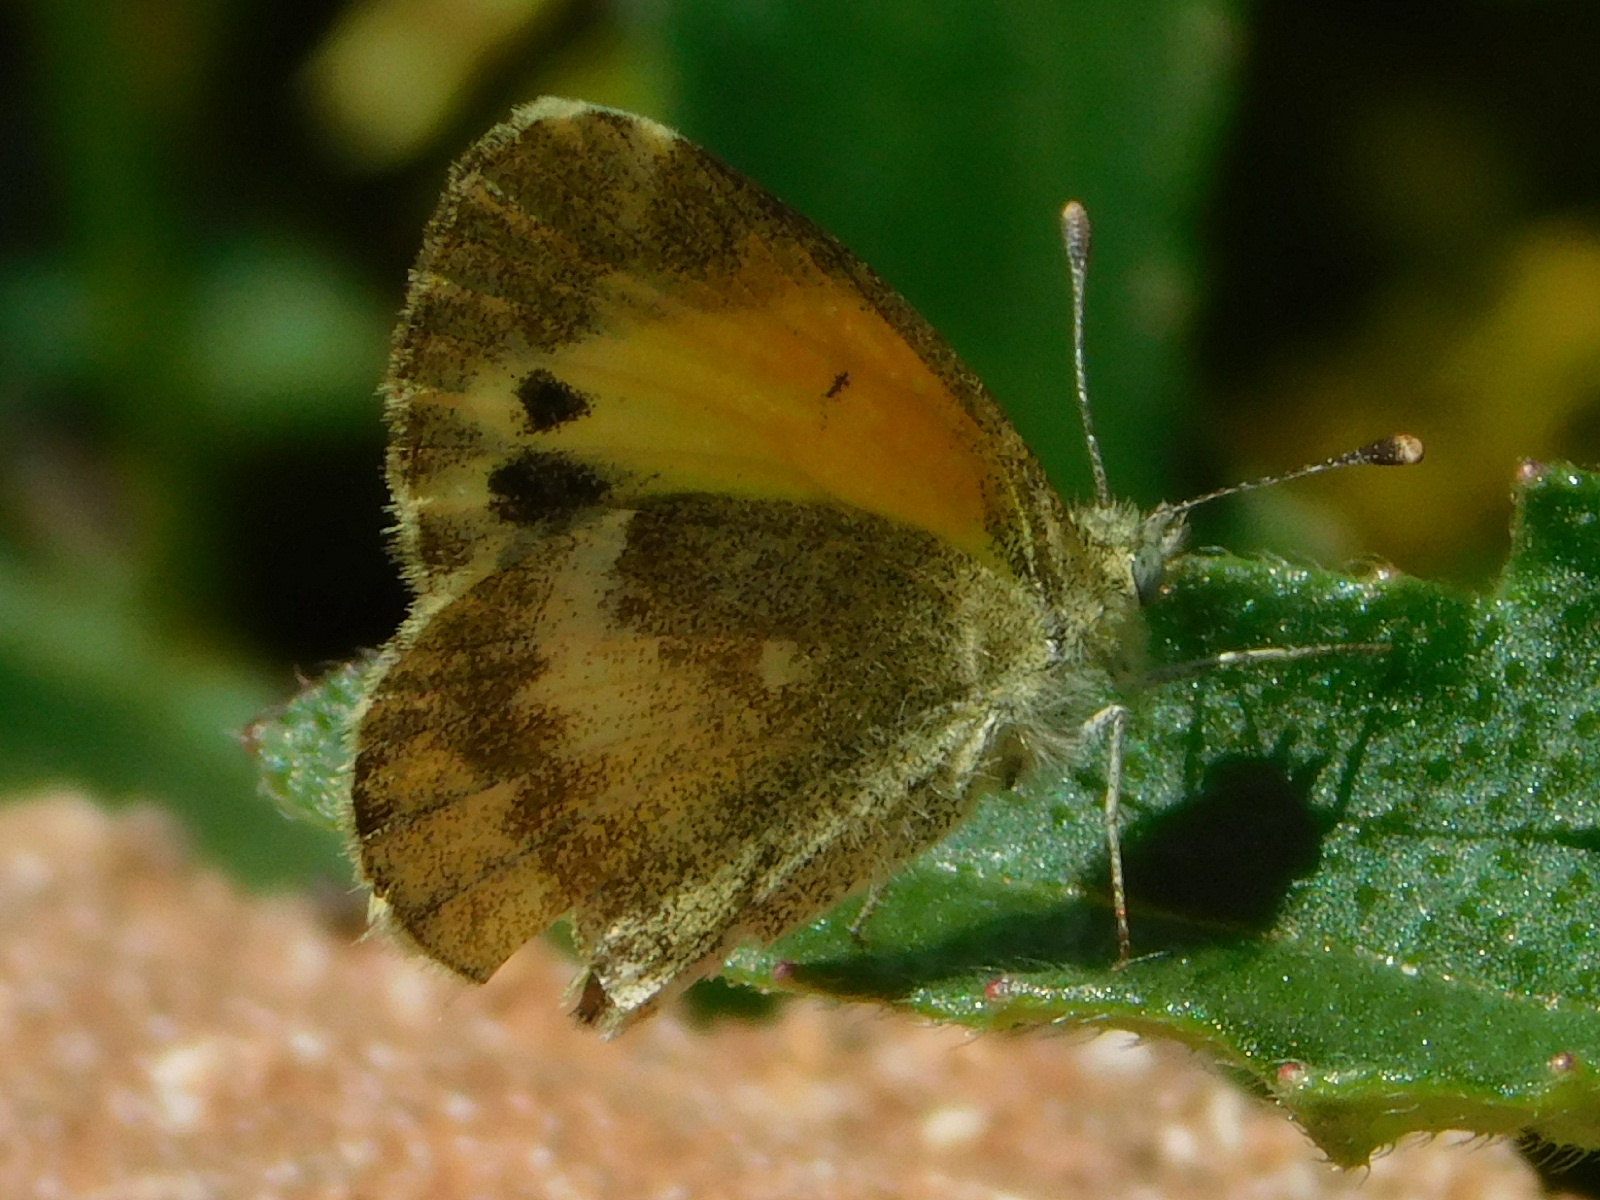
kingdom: Animalia
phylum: Arthropoda
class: Insecta
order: Lepidoptera
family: Pieridae
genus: Nathalis
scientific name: Nathalis iole
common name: Dainty sulphur
